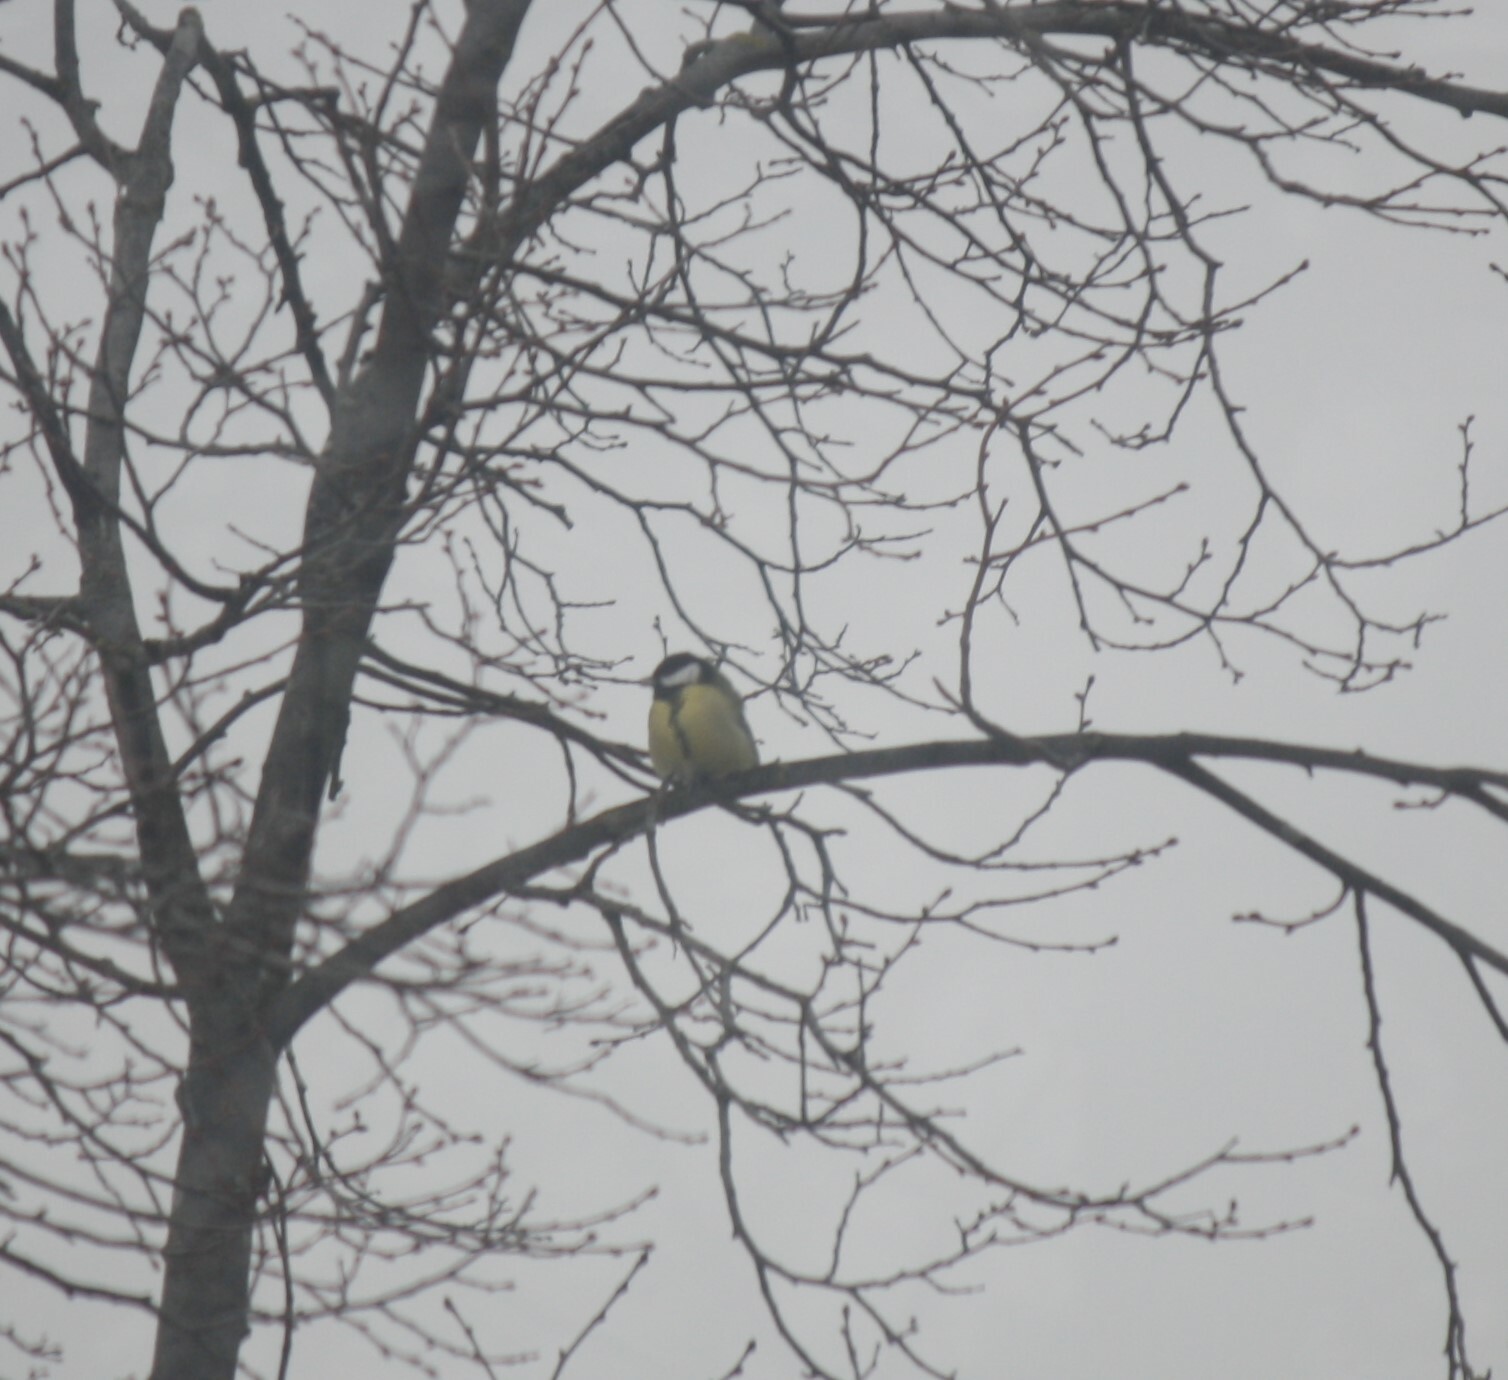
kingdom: Animalia
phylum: Chordata
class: Aves
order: Passeriformes
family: Paridae
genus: Parus
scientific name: Parus major
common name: Great tit
